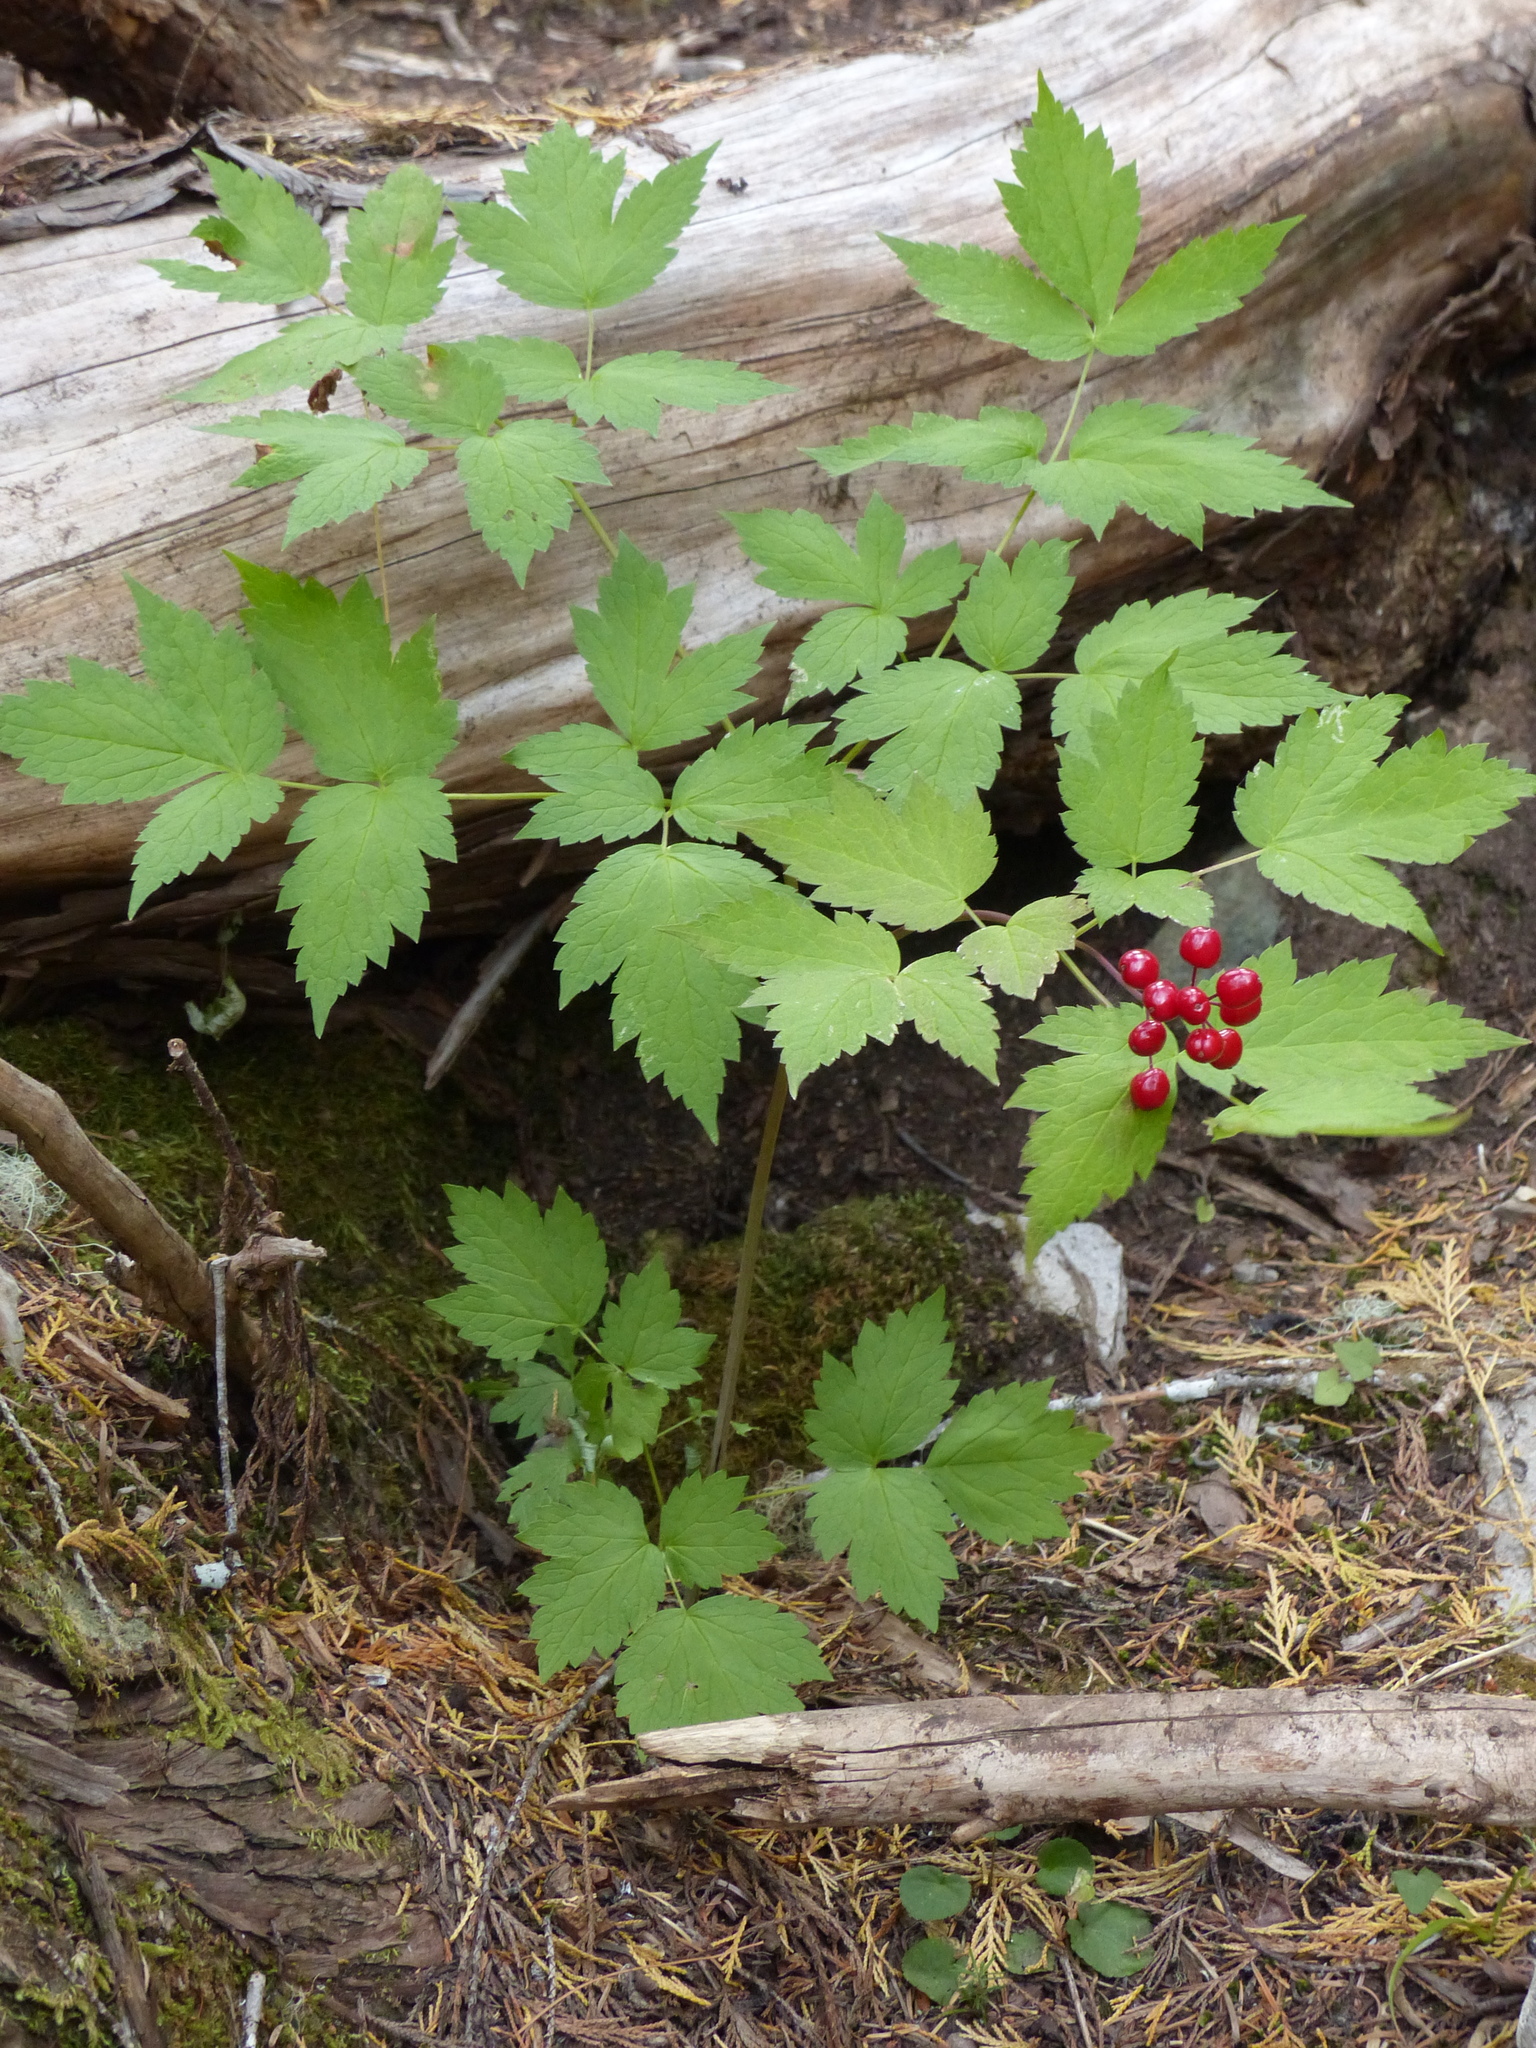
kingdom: Plantae
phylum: Tracheophyta
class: Magnoliopsida
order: Ranunculales
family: Ranunculaceae
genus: Actaea
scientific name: Actaea rubra
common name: Red baneberry
